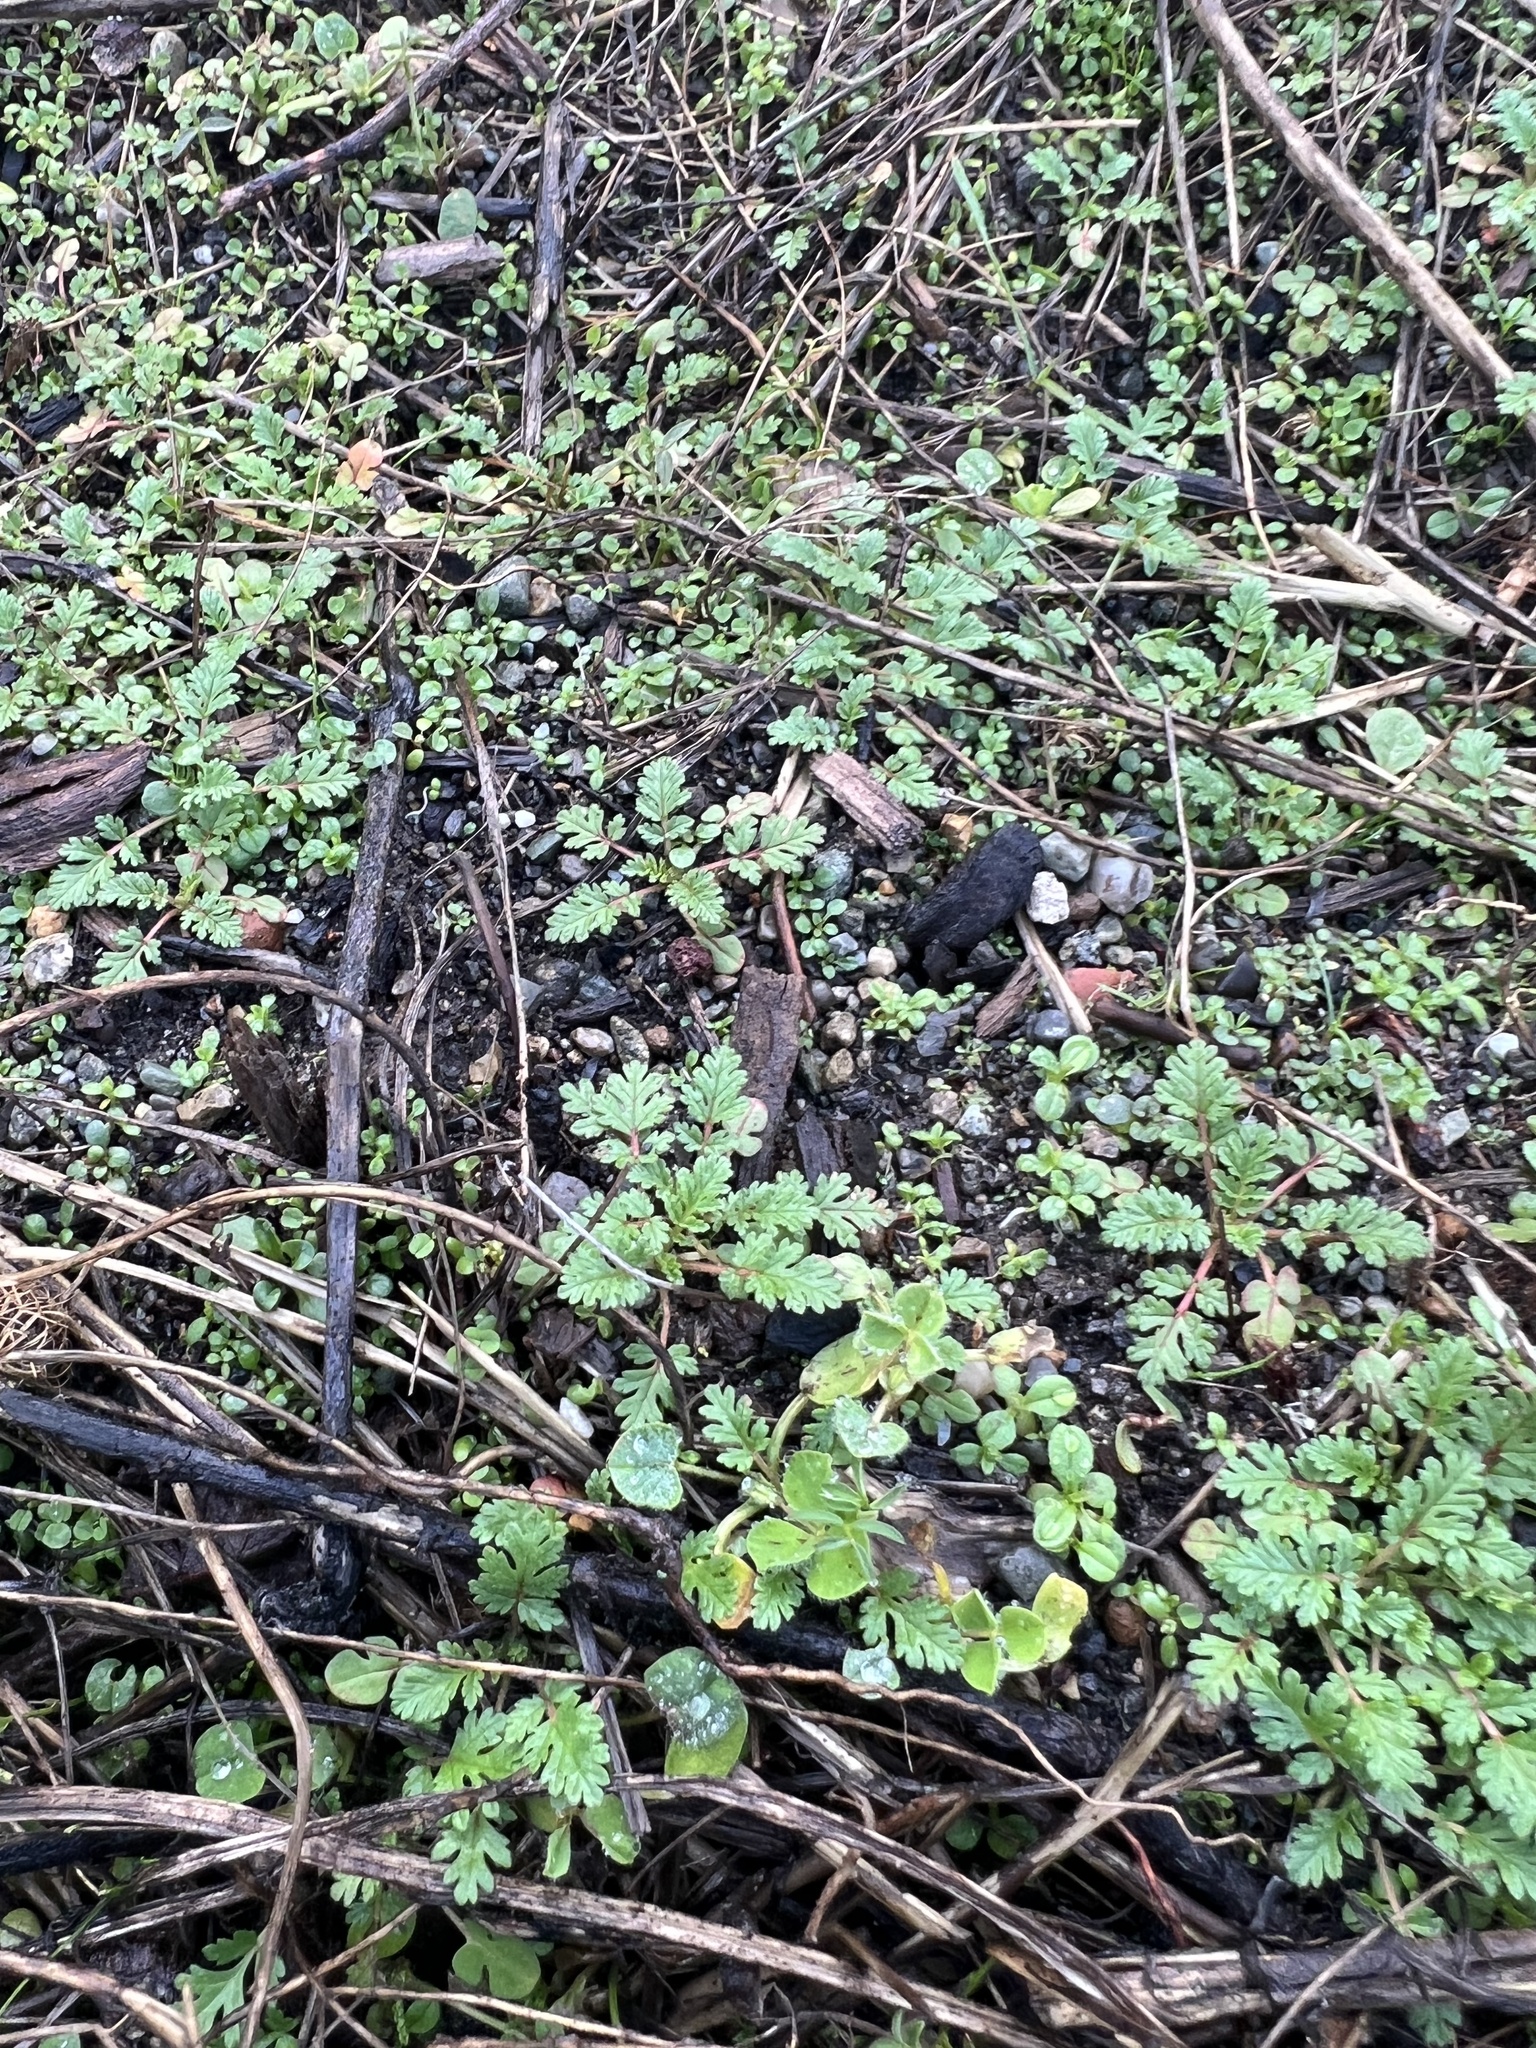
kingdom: Plantae
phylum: Tracheophyta
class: Magnoliopsida
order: Geraniales
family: Geraniaceae
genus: Erodium
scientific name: Erodium cicutarium
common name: Common stork's-bill
